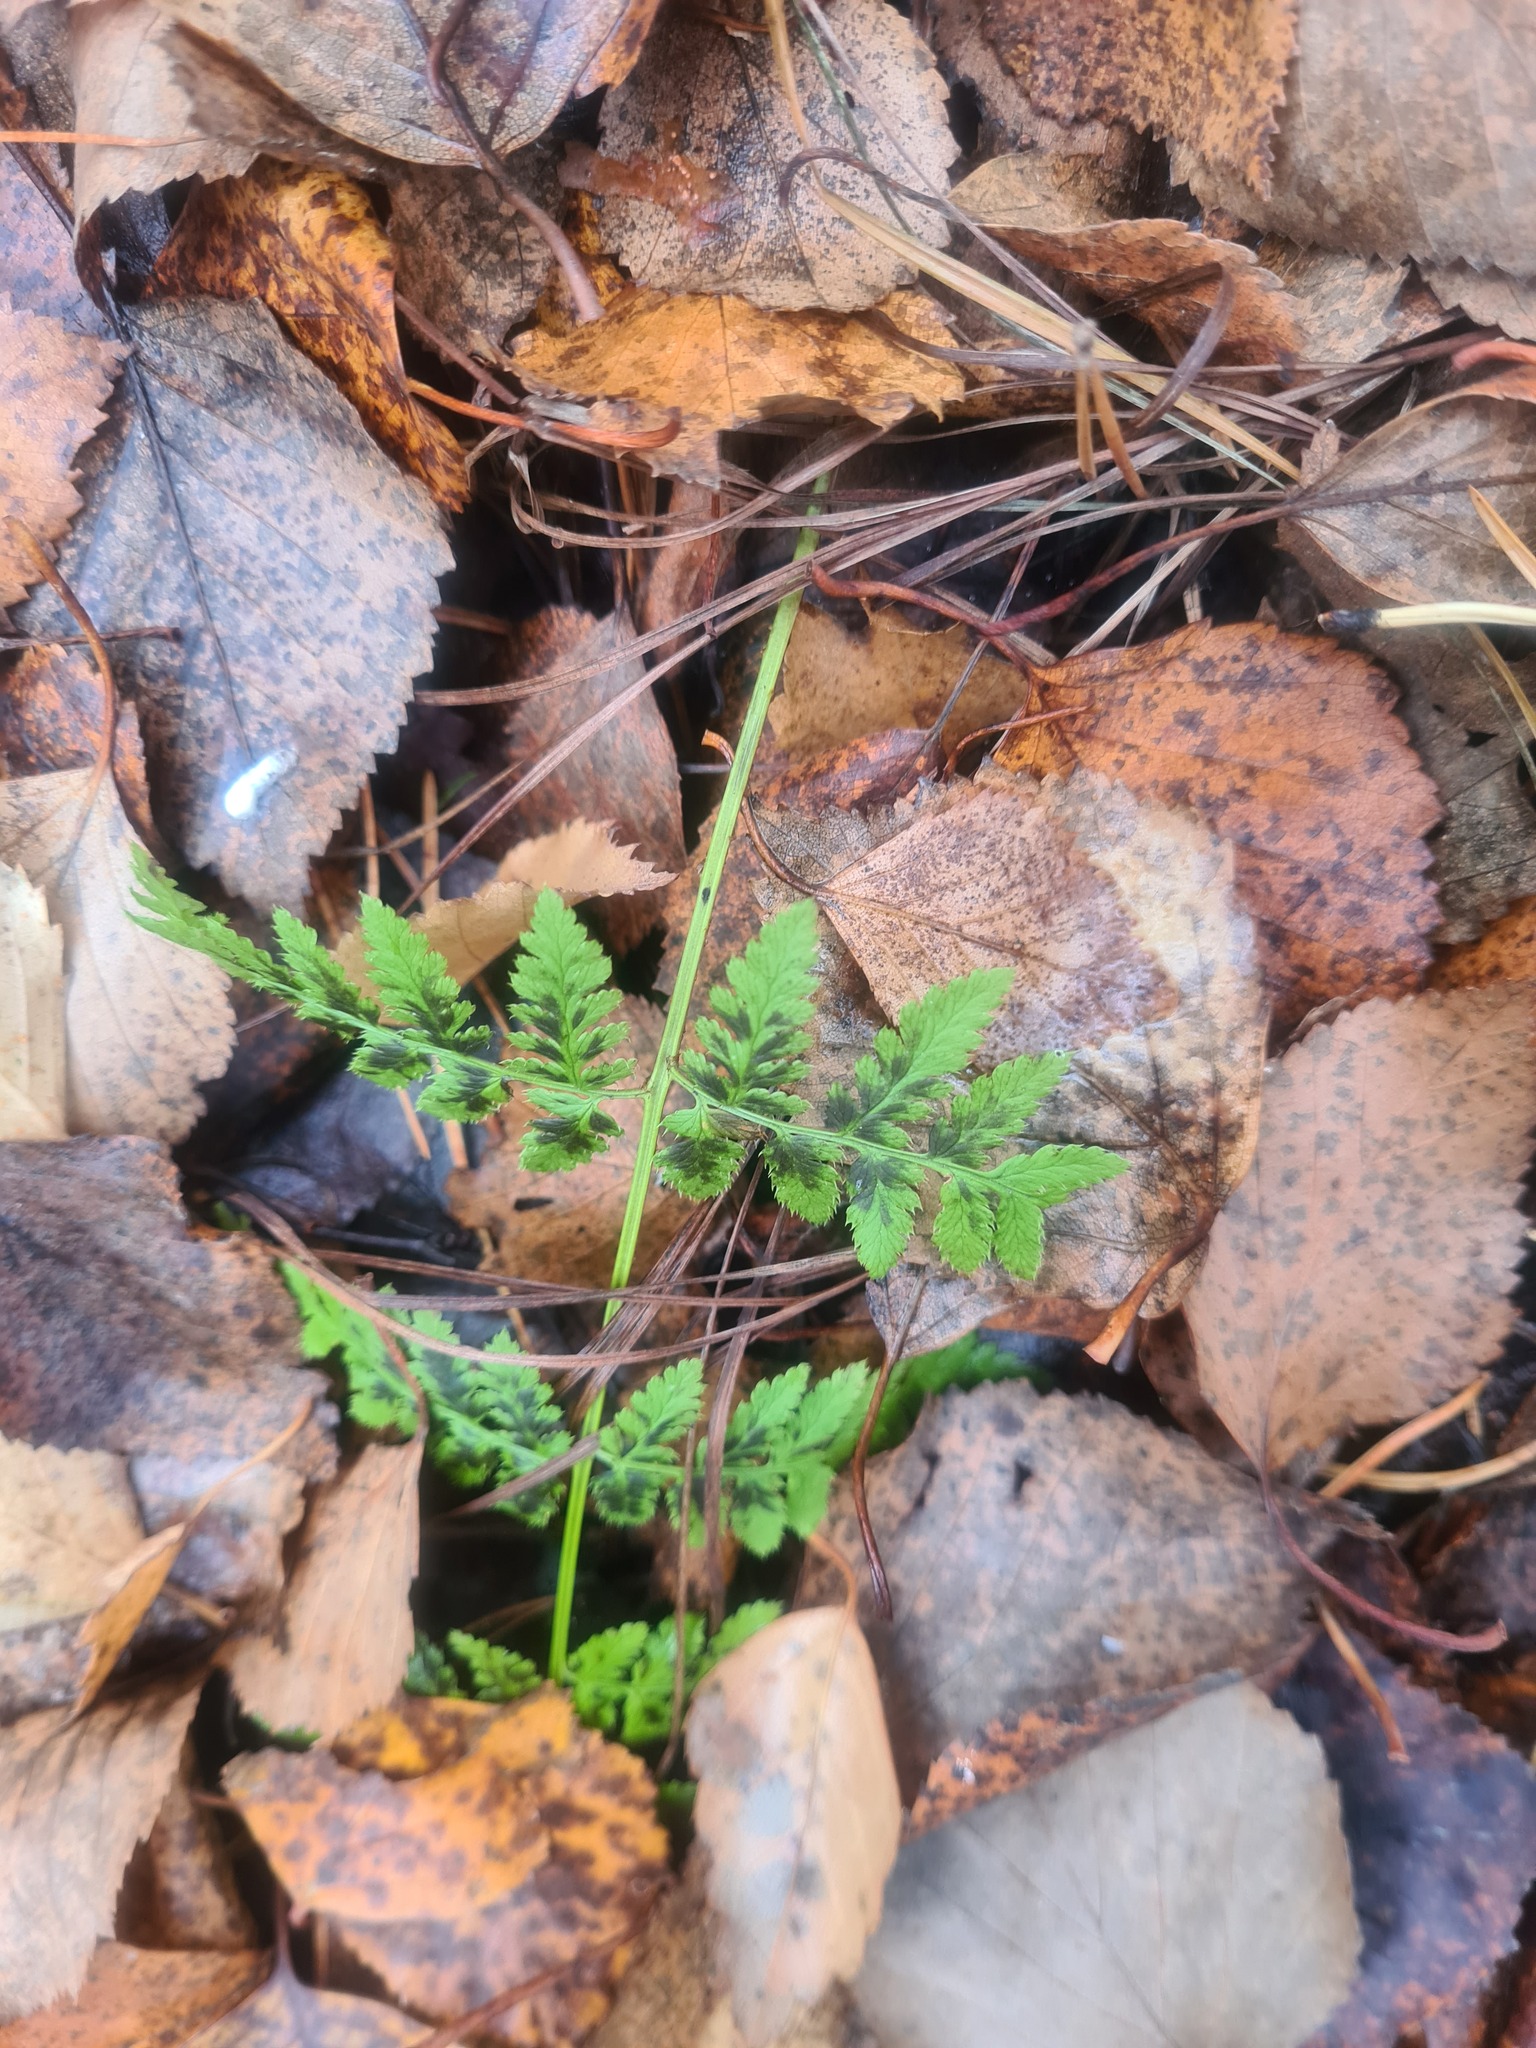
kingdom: Plantae
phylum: Tracheophyta
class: Polypodiopsida
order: Polypodiales
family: Dryopteridaceae
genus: Dryopteris
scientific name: Dryopteris carthusiana
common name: Narrow buckler-fern
